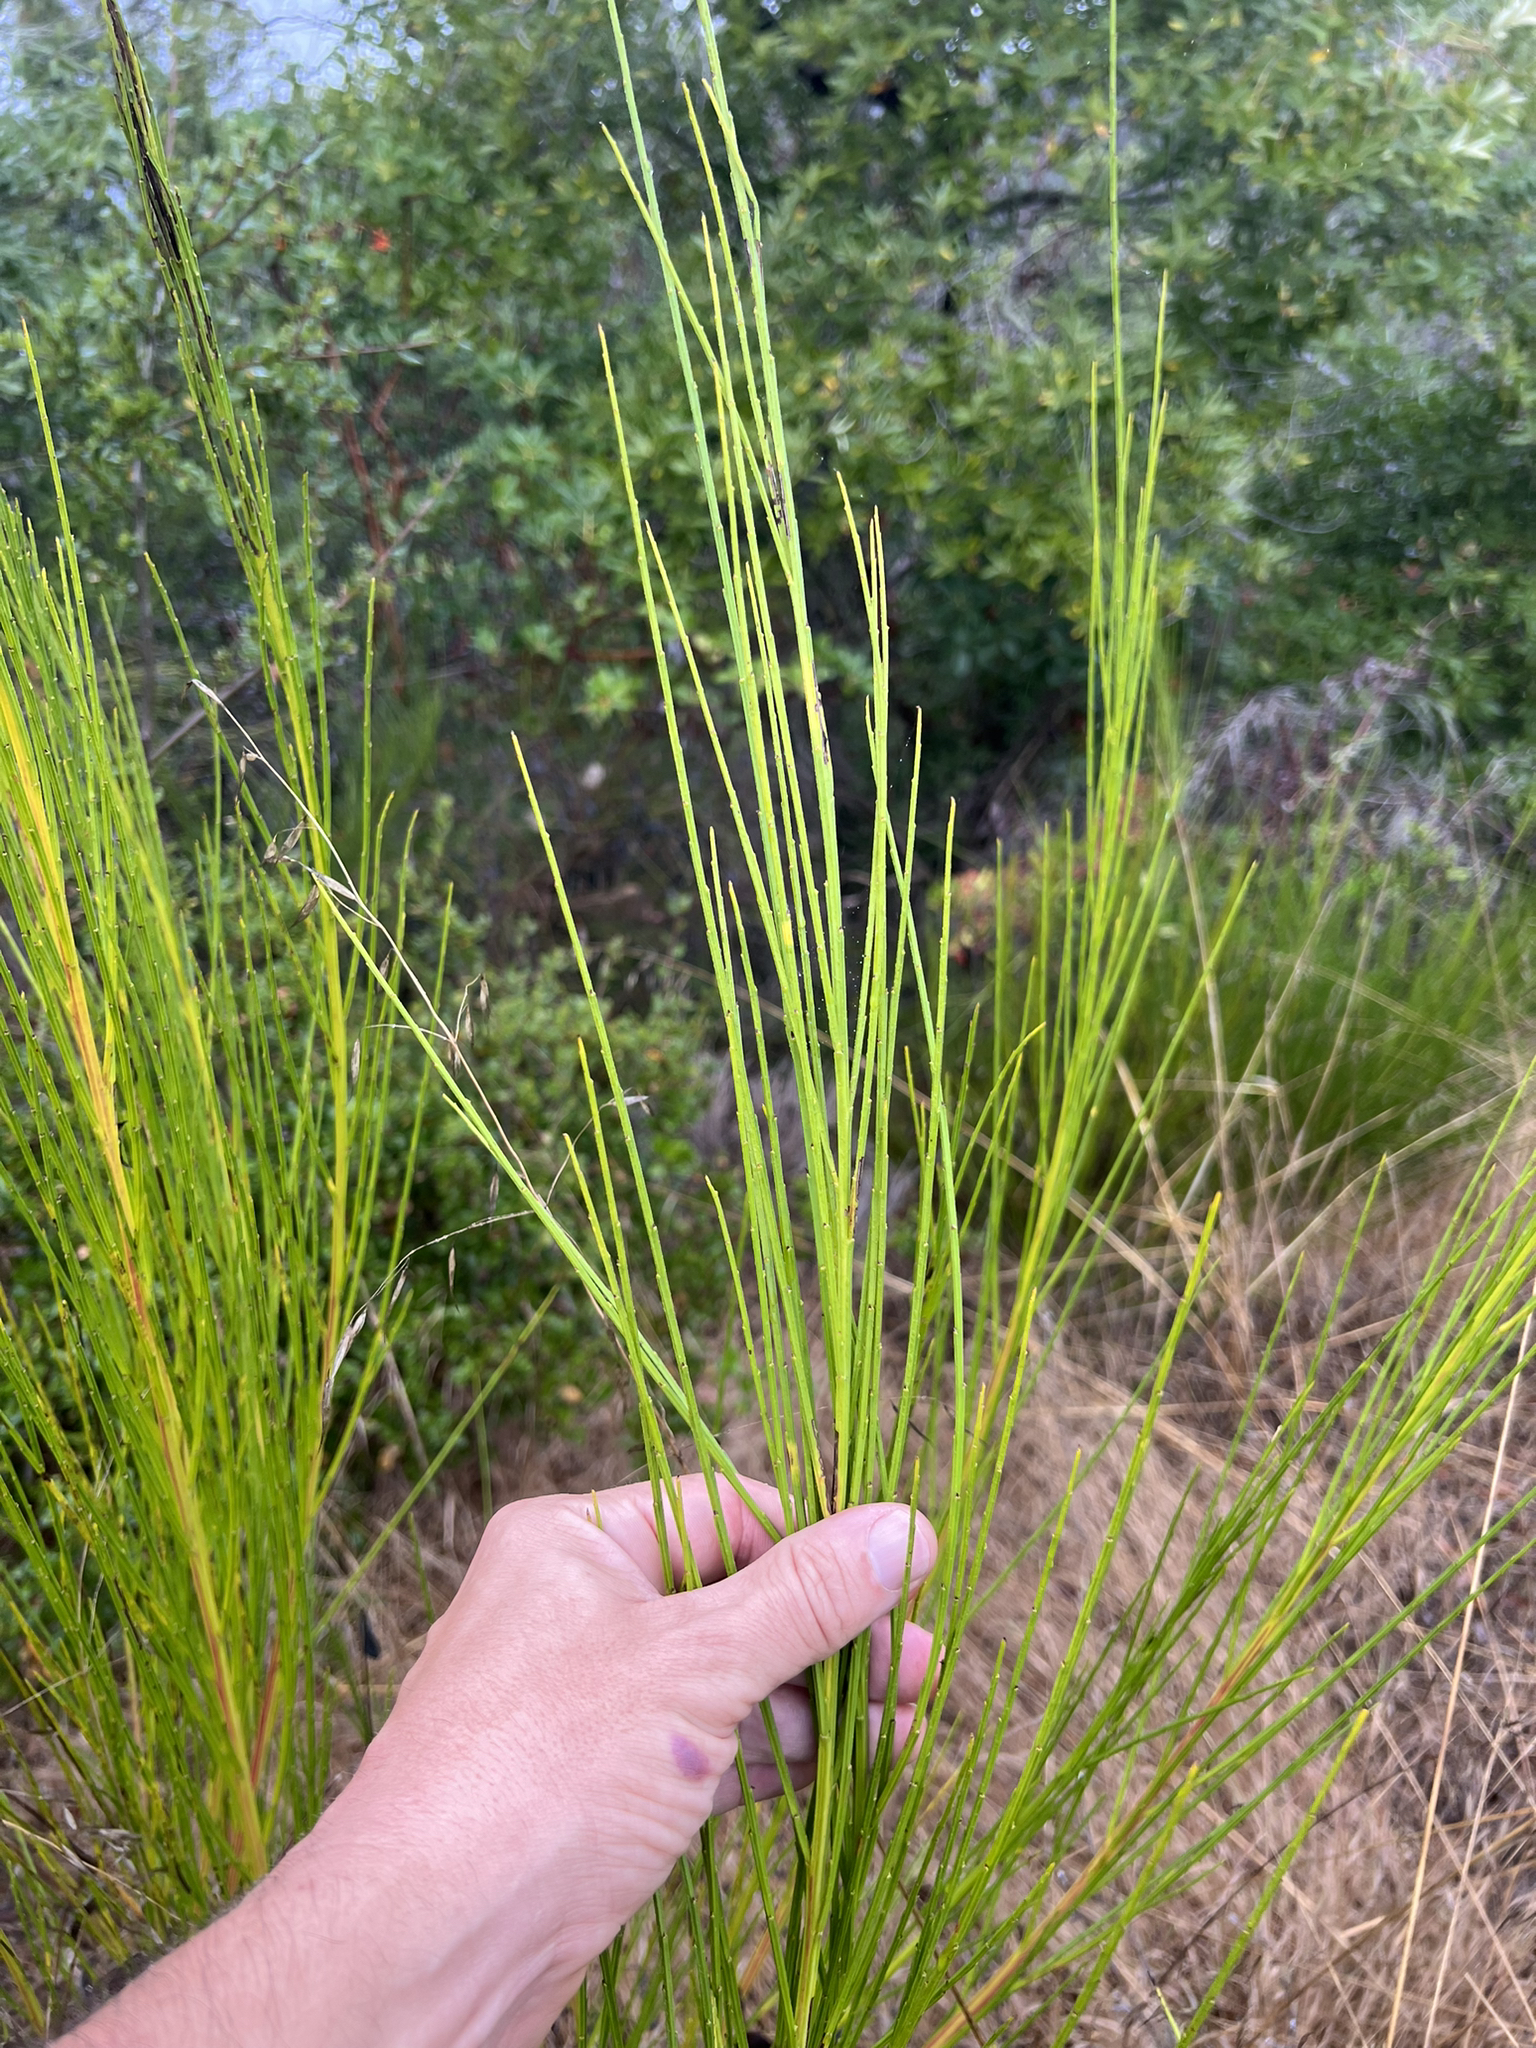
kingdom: Plantae
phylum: Tracheophyta
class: Magnoliopsida
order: Fabales
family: Fabaceae
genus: Cytisus
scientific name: Cytisus scoparius
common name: Scotch broom
